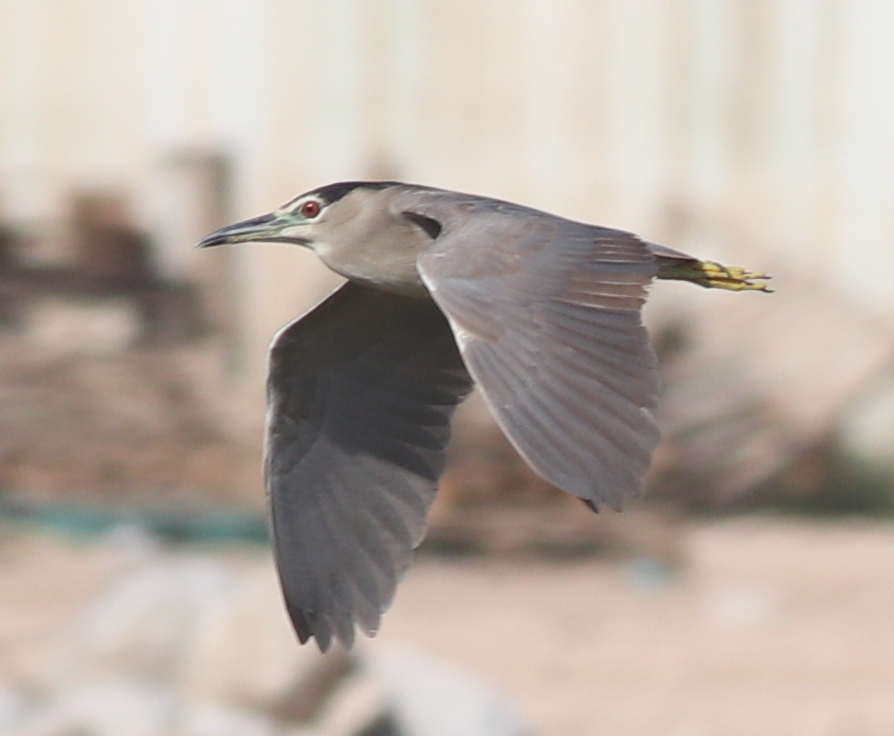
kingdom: Animalia
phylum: Chordata
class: Aves
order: Pelecaniformes
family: Ardeidae
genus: Nycticorax
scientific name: Nycticorax nycticorax
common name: Black-crowned night heron
